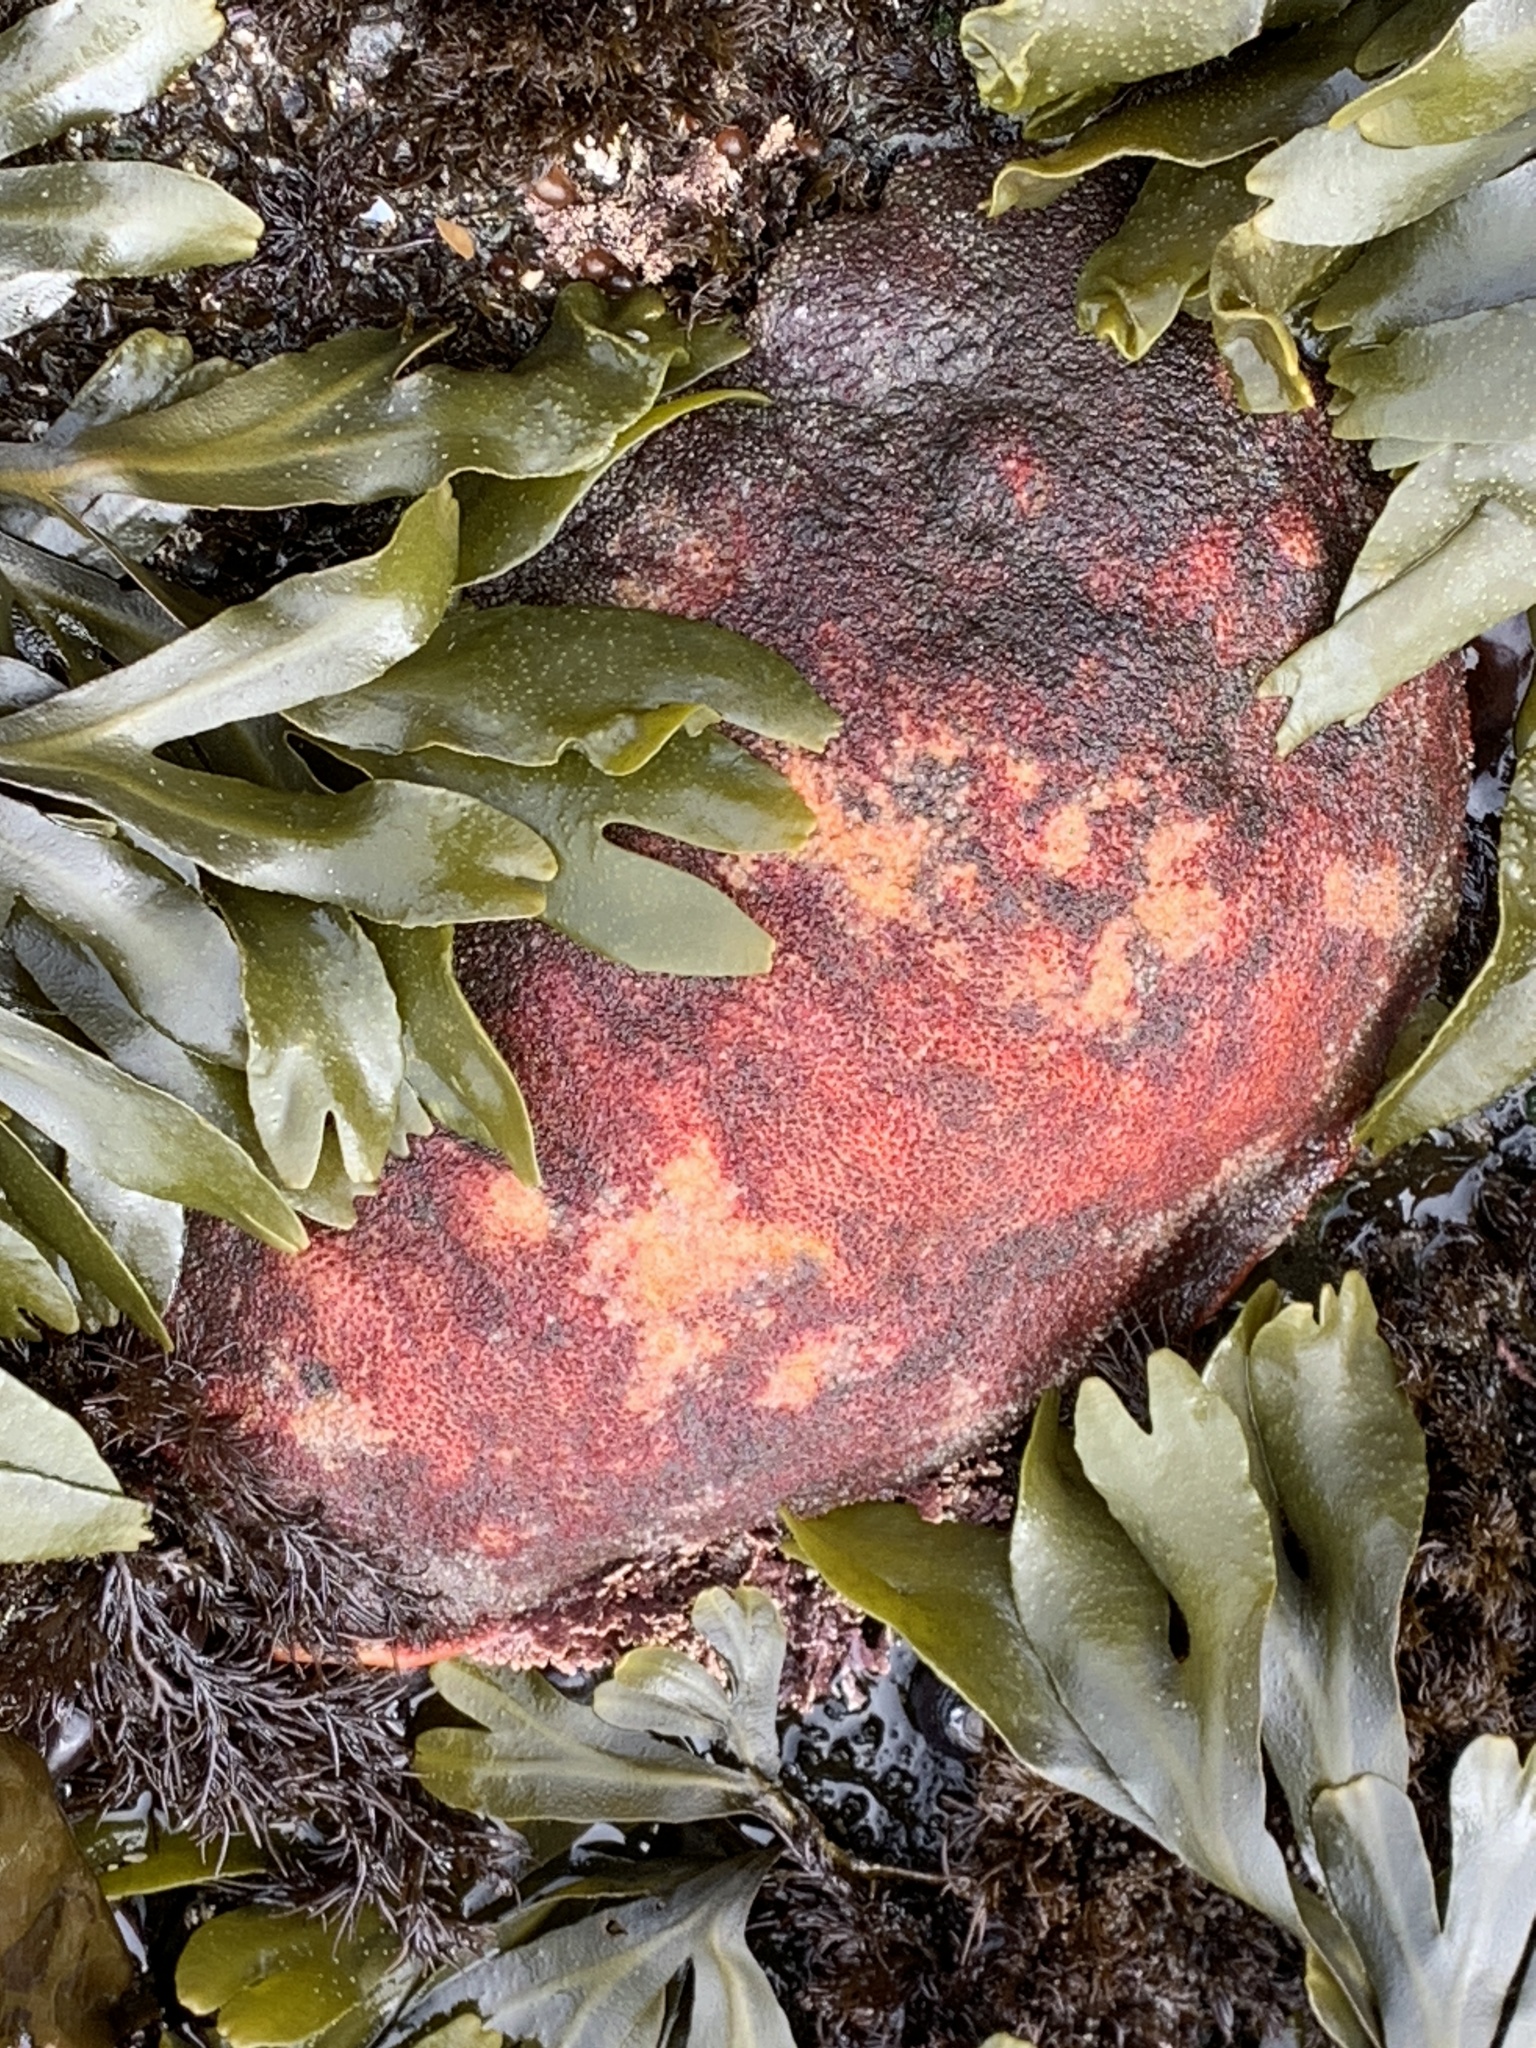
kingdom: Animalia
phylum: Mollusca
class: Polyplacophora
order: Chitonida
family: Acanthochitonidae
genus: Cryptochiton
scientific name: Cryptochiton stelleri
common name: Giant pacific chiton
